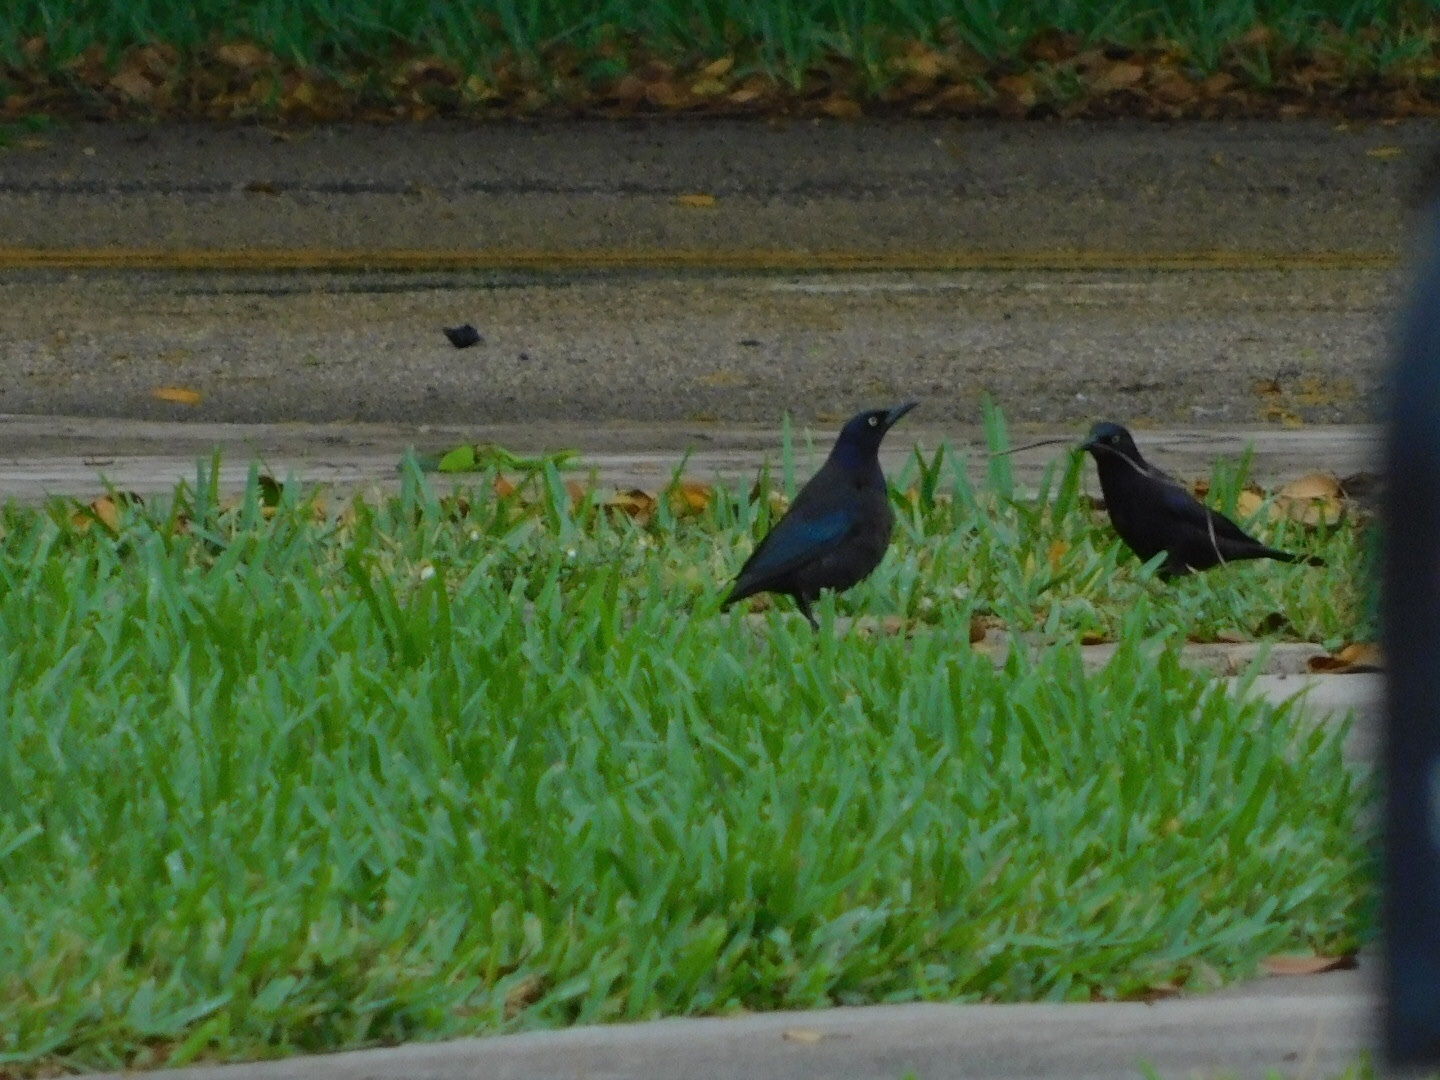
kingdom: Animalia
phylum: Chordata
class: Aves
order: Passeriformes
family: Icteridae
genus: Quiscalus
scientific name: Quiscalus quiscula
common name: Common grackle
